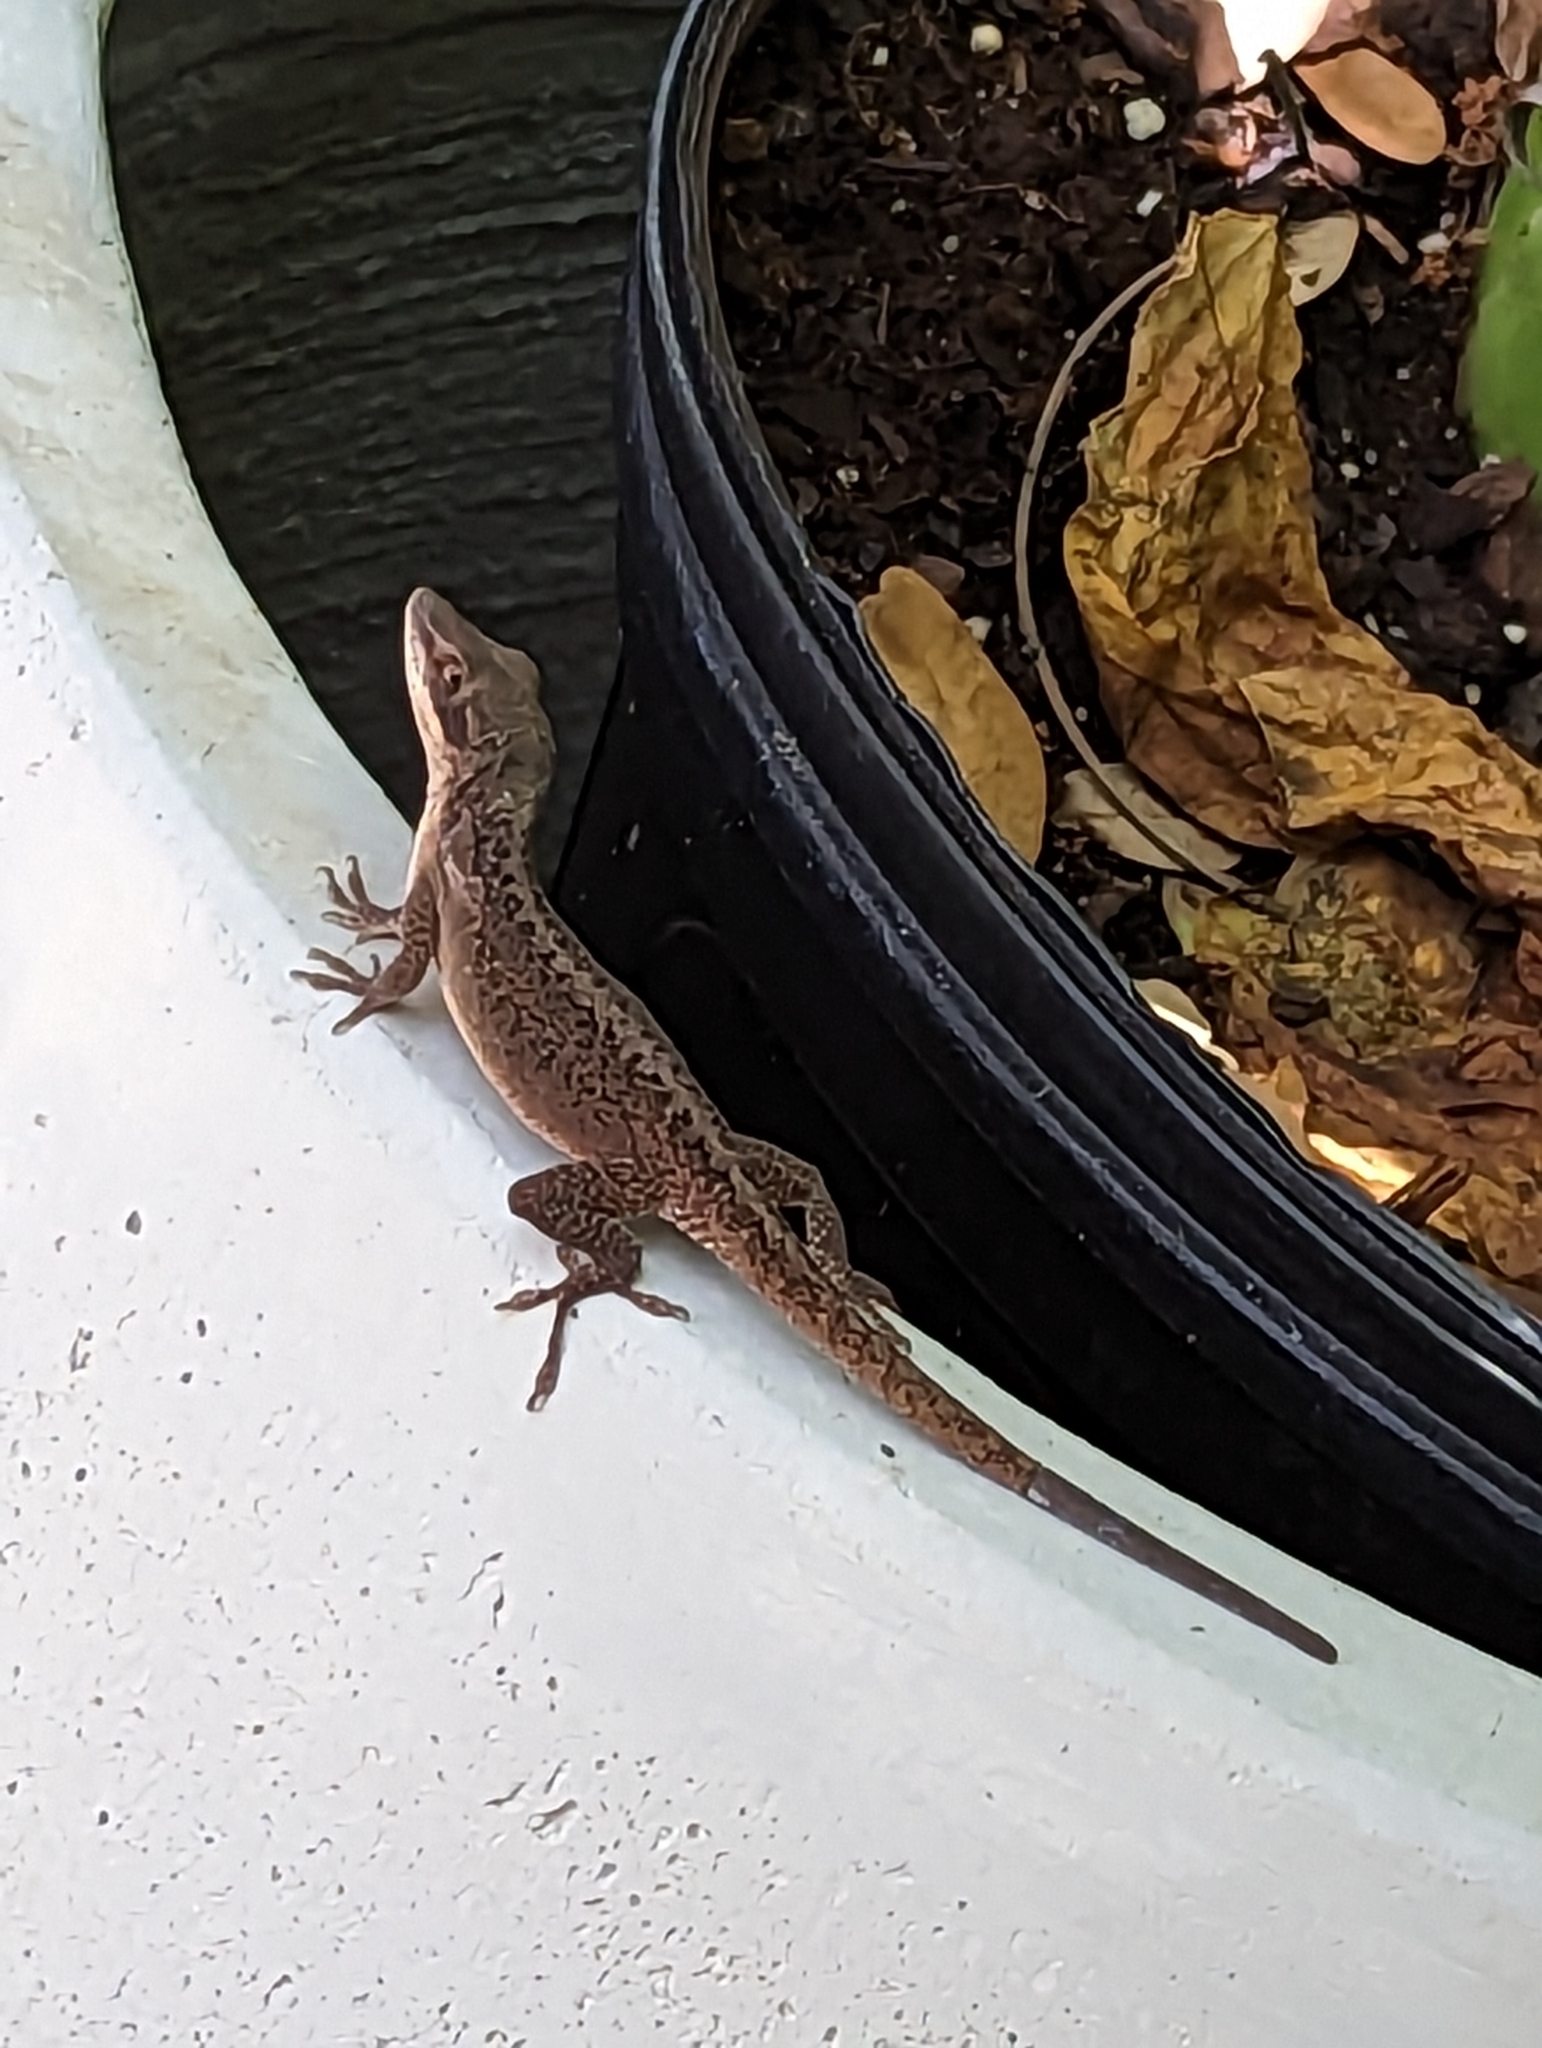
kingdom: Animalia
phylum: Chordata
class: Squamata
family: Dactyloidae
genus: Anolis
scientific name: Anolis carolinensis
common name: Green anole
